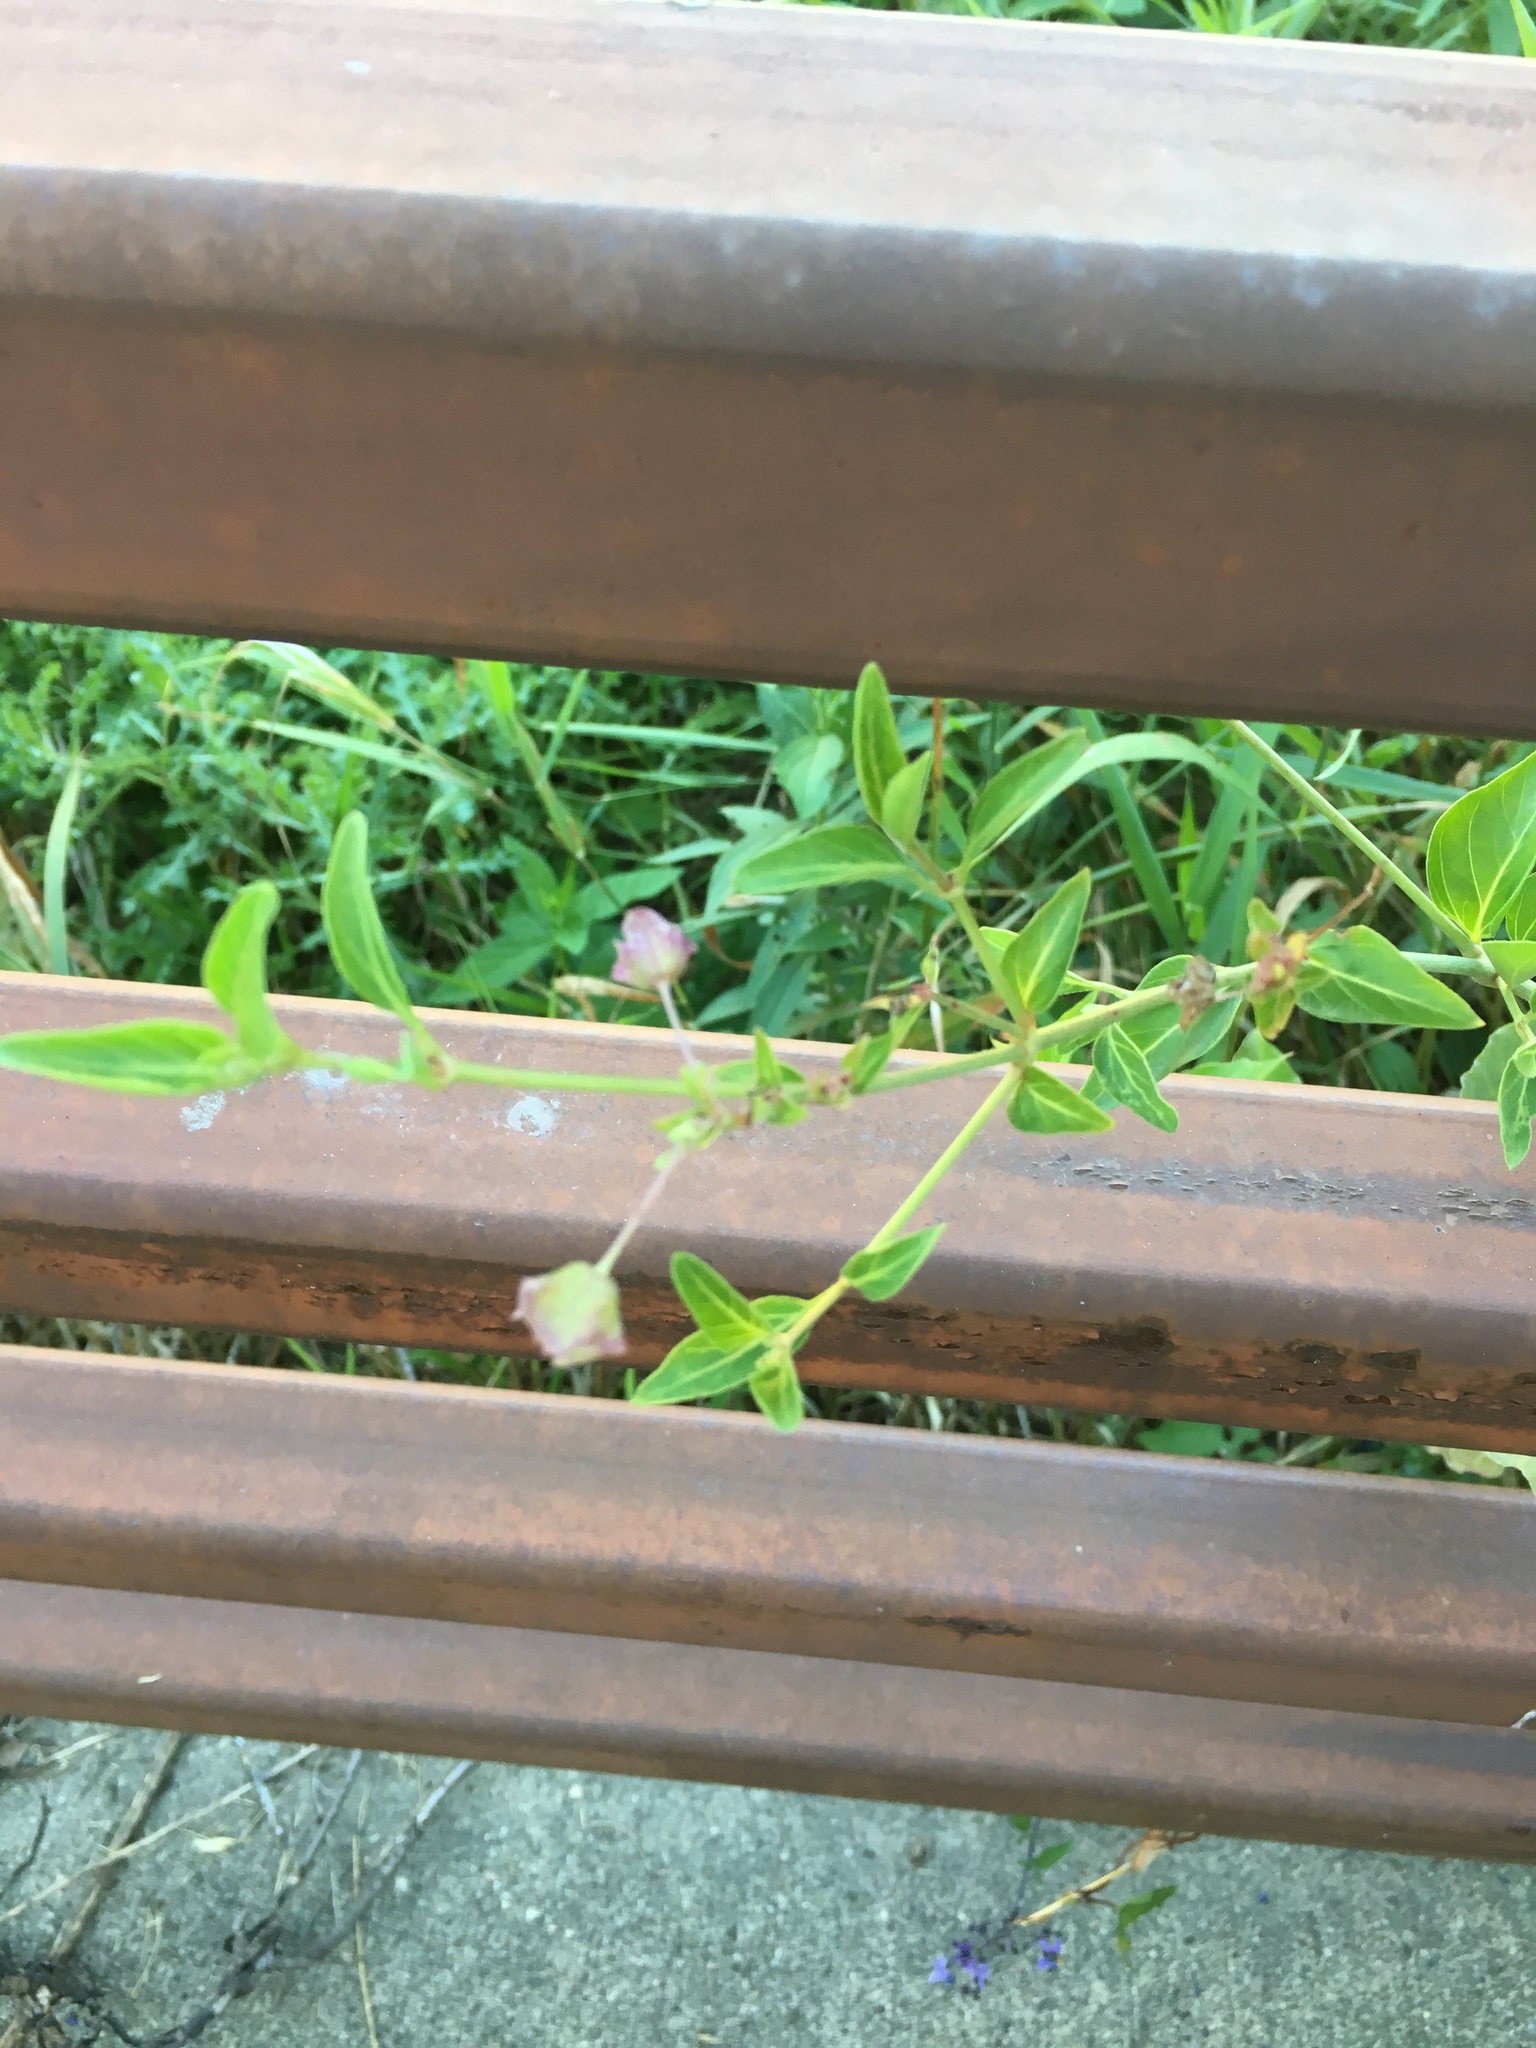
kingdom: Plantae
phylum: Tracheophyta
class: Magnoliopsida
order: Caryophyllales
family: Nyctaginaceae
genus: Mirabilis
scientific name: Mirabilis nyctaginea
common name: Umbrella wort
